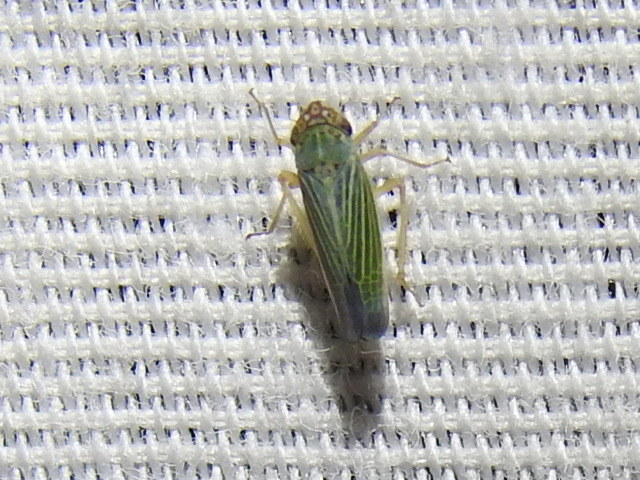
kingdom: Animalia
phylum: Arthropoda
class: Insecta
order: Hemiptera
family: Cicadellidae
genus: Xyphon
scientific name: Xyphon reticulatum
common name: Planthopper
